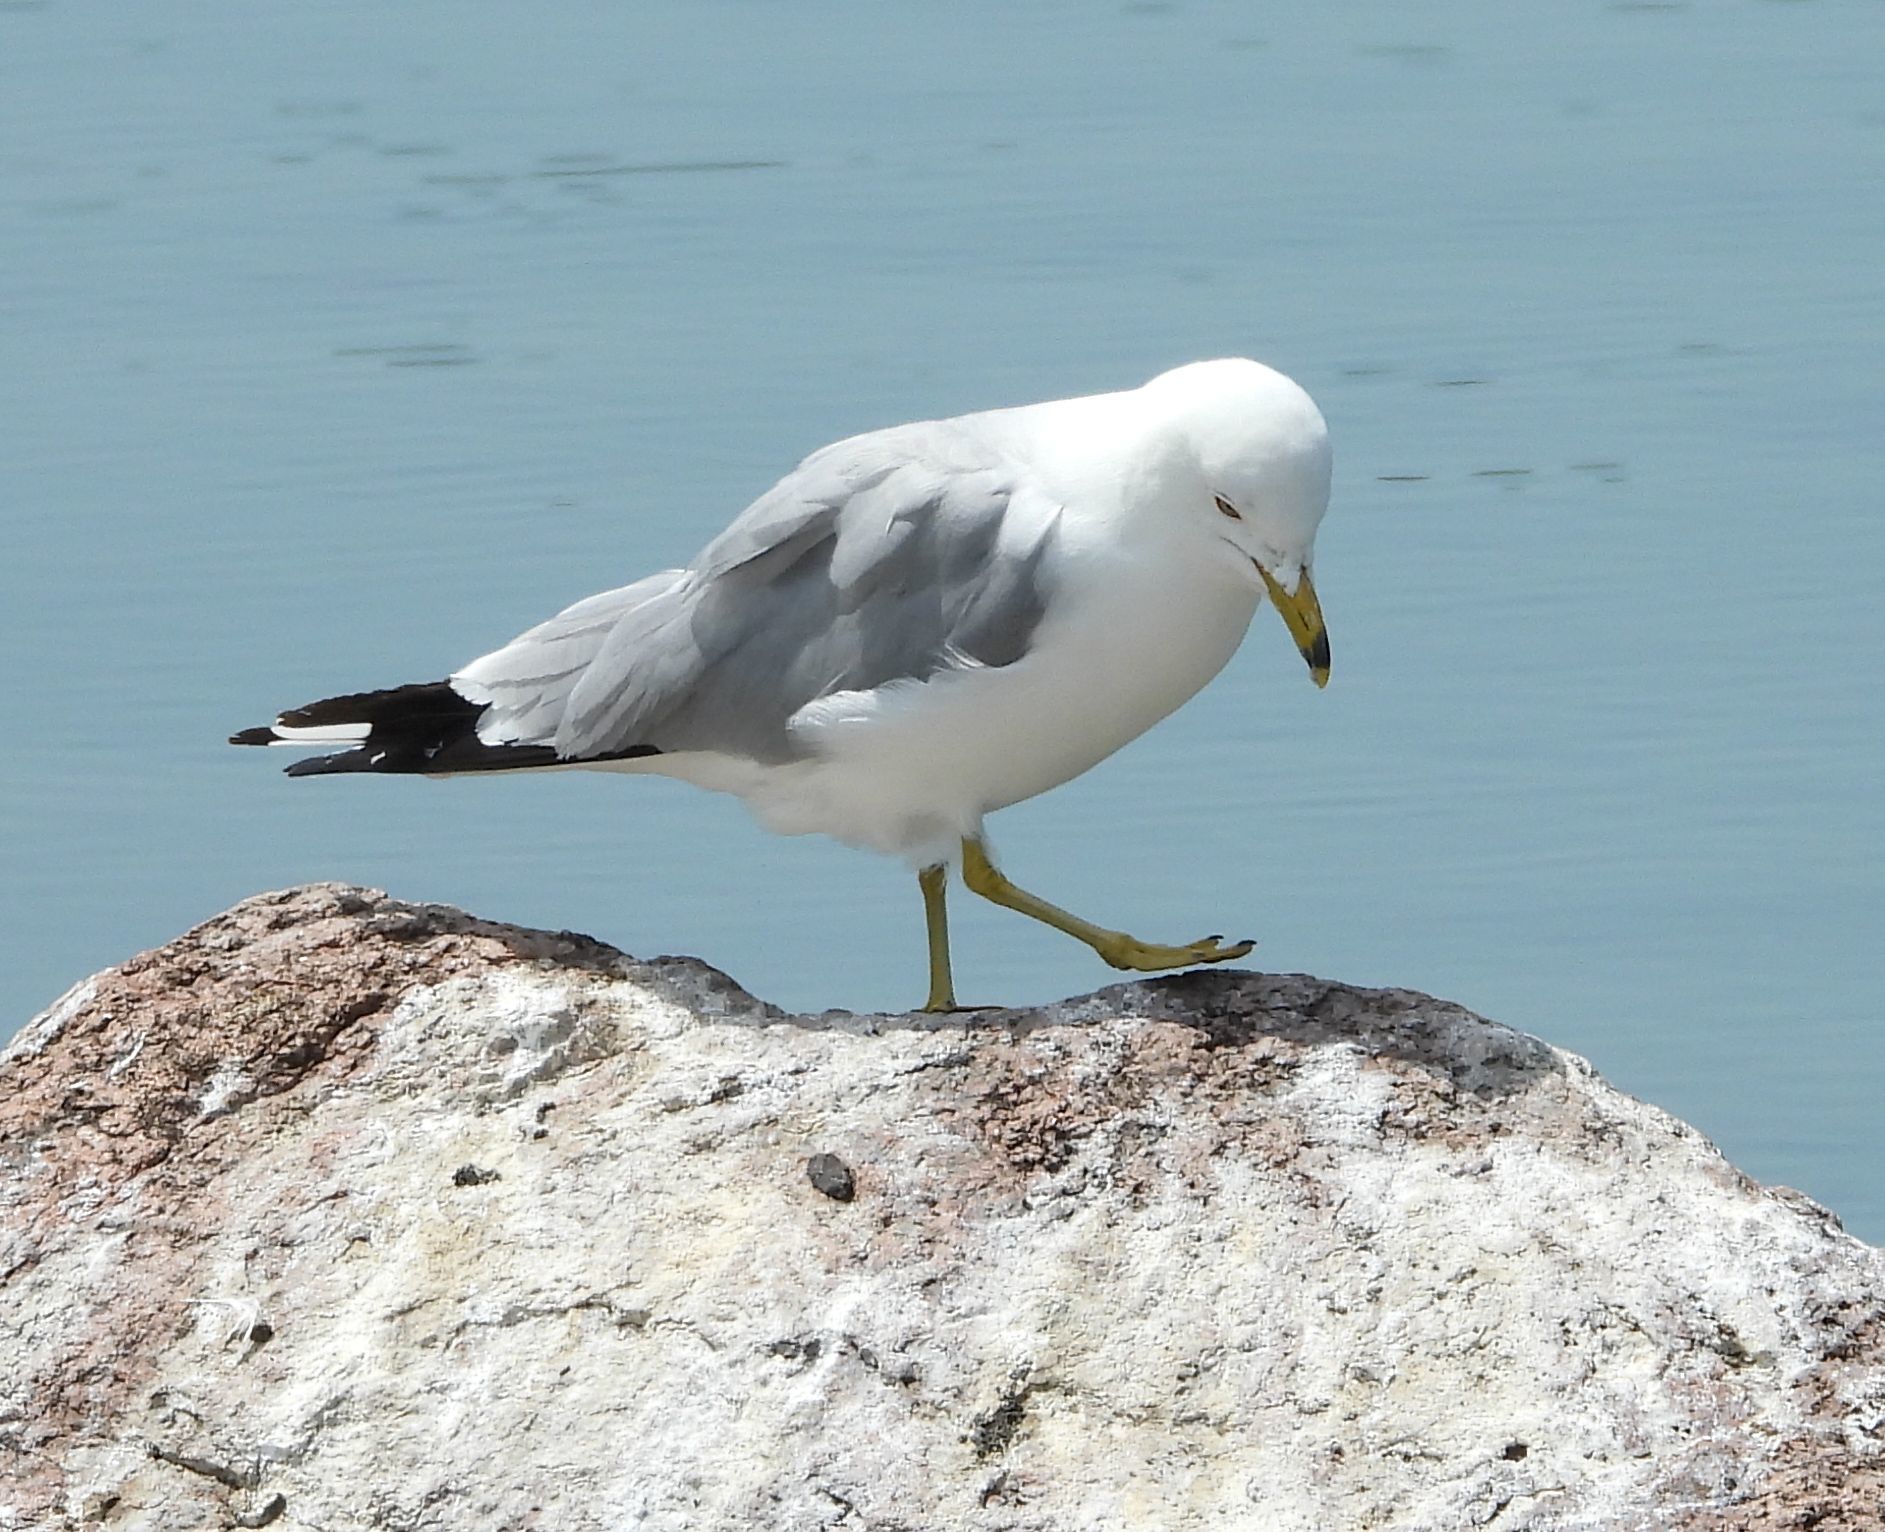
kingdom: Animalia
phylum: Chordata
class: Aves
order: Charadriiformes
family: Laridae
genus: Larus
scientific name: Larus delawarensis
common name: Ring-billed gull
